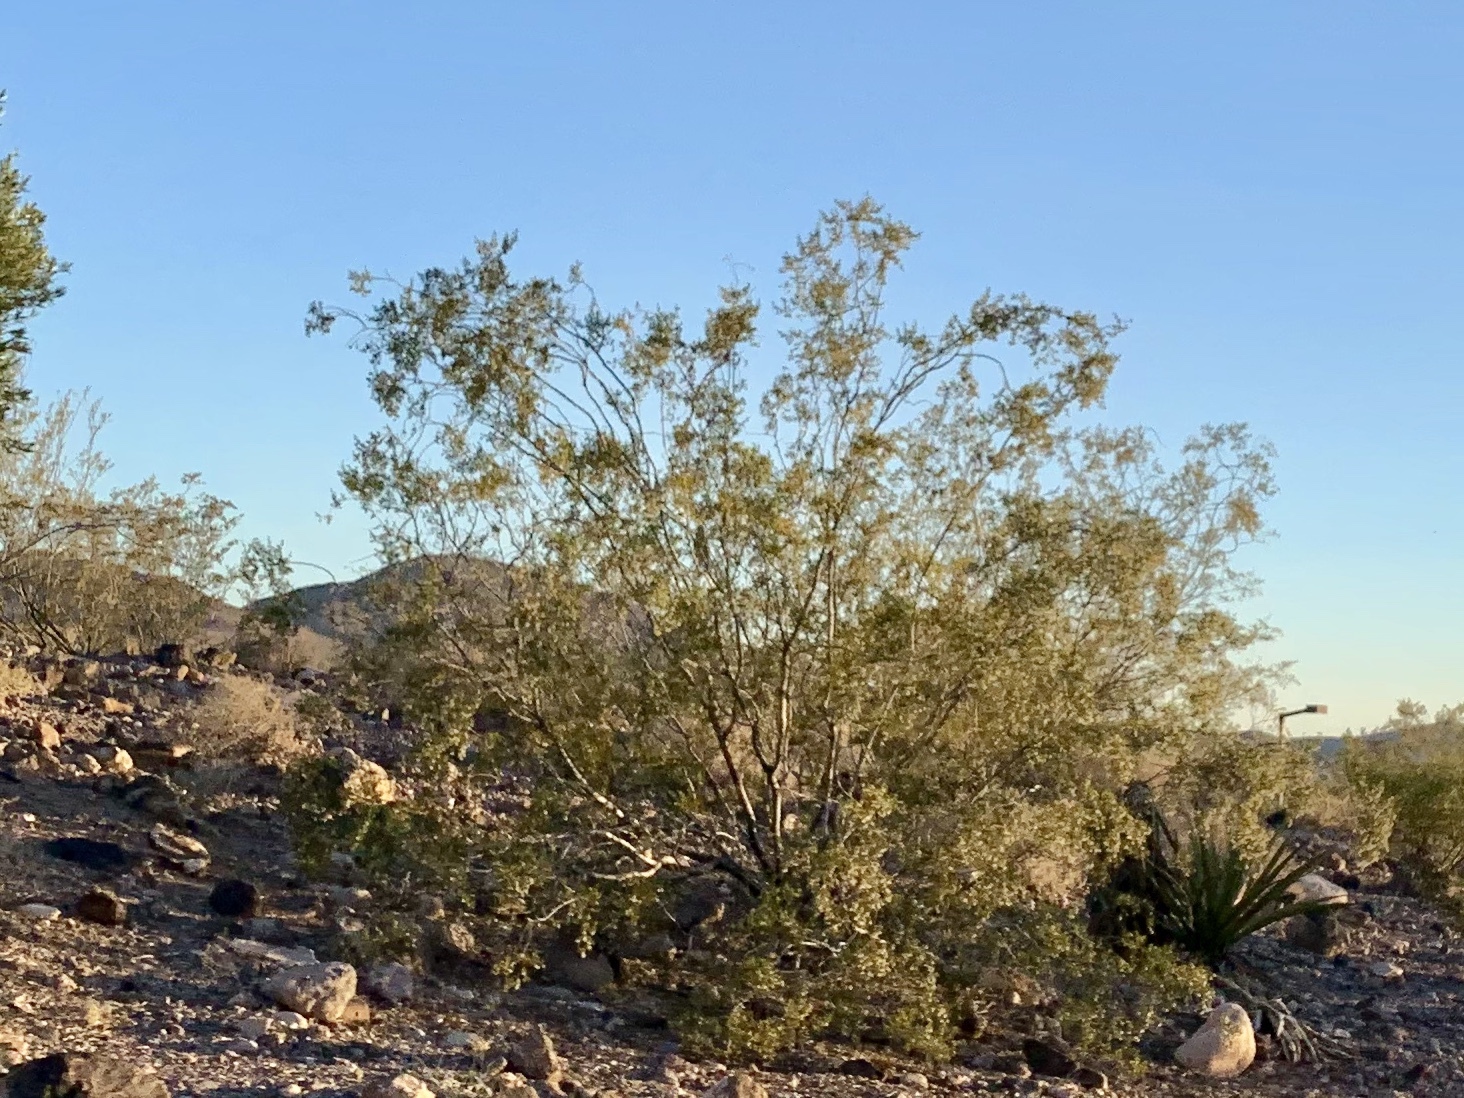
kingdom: Plantae
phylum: Tracheophyta
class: Magnoliopsida
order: Zygophyllales
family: Zygophyllaceae
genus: Larrea
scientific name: Larrea tridentata
